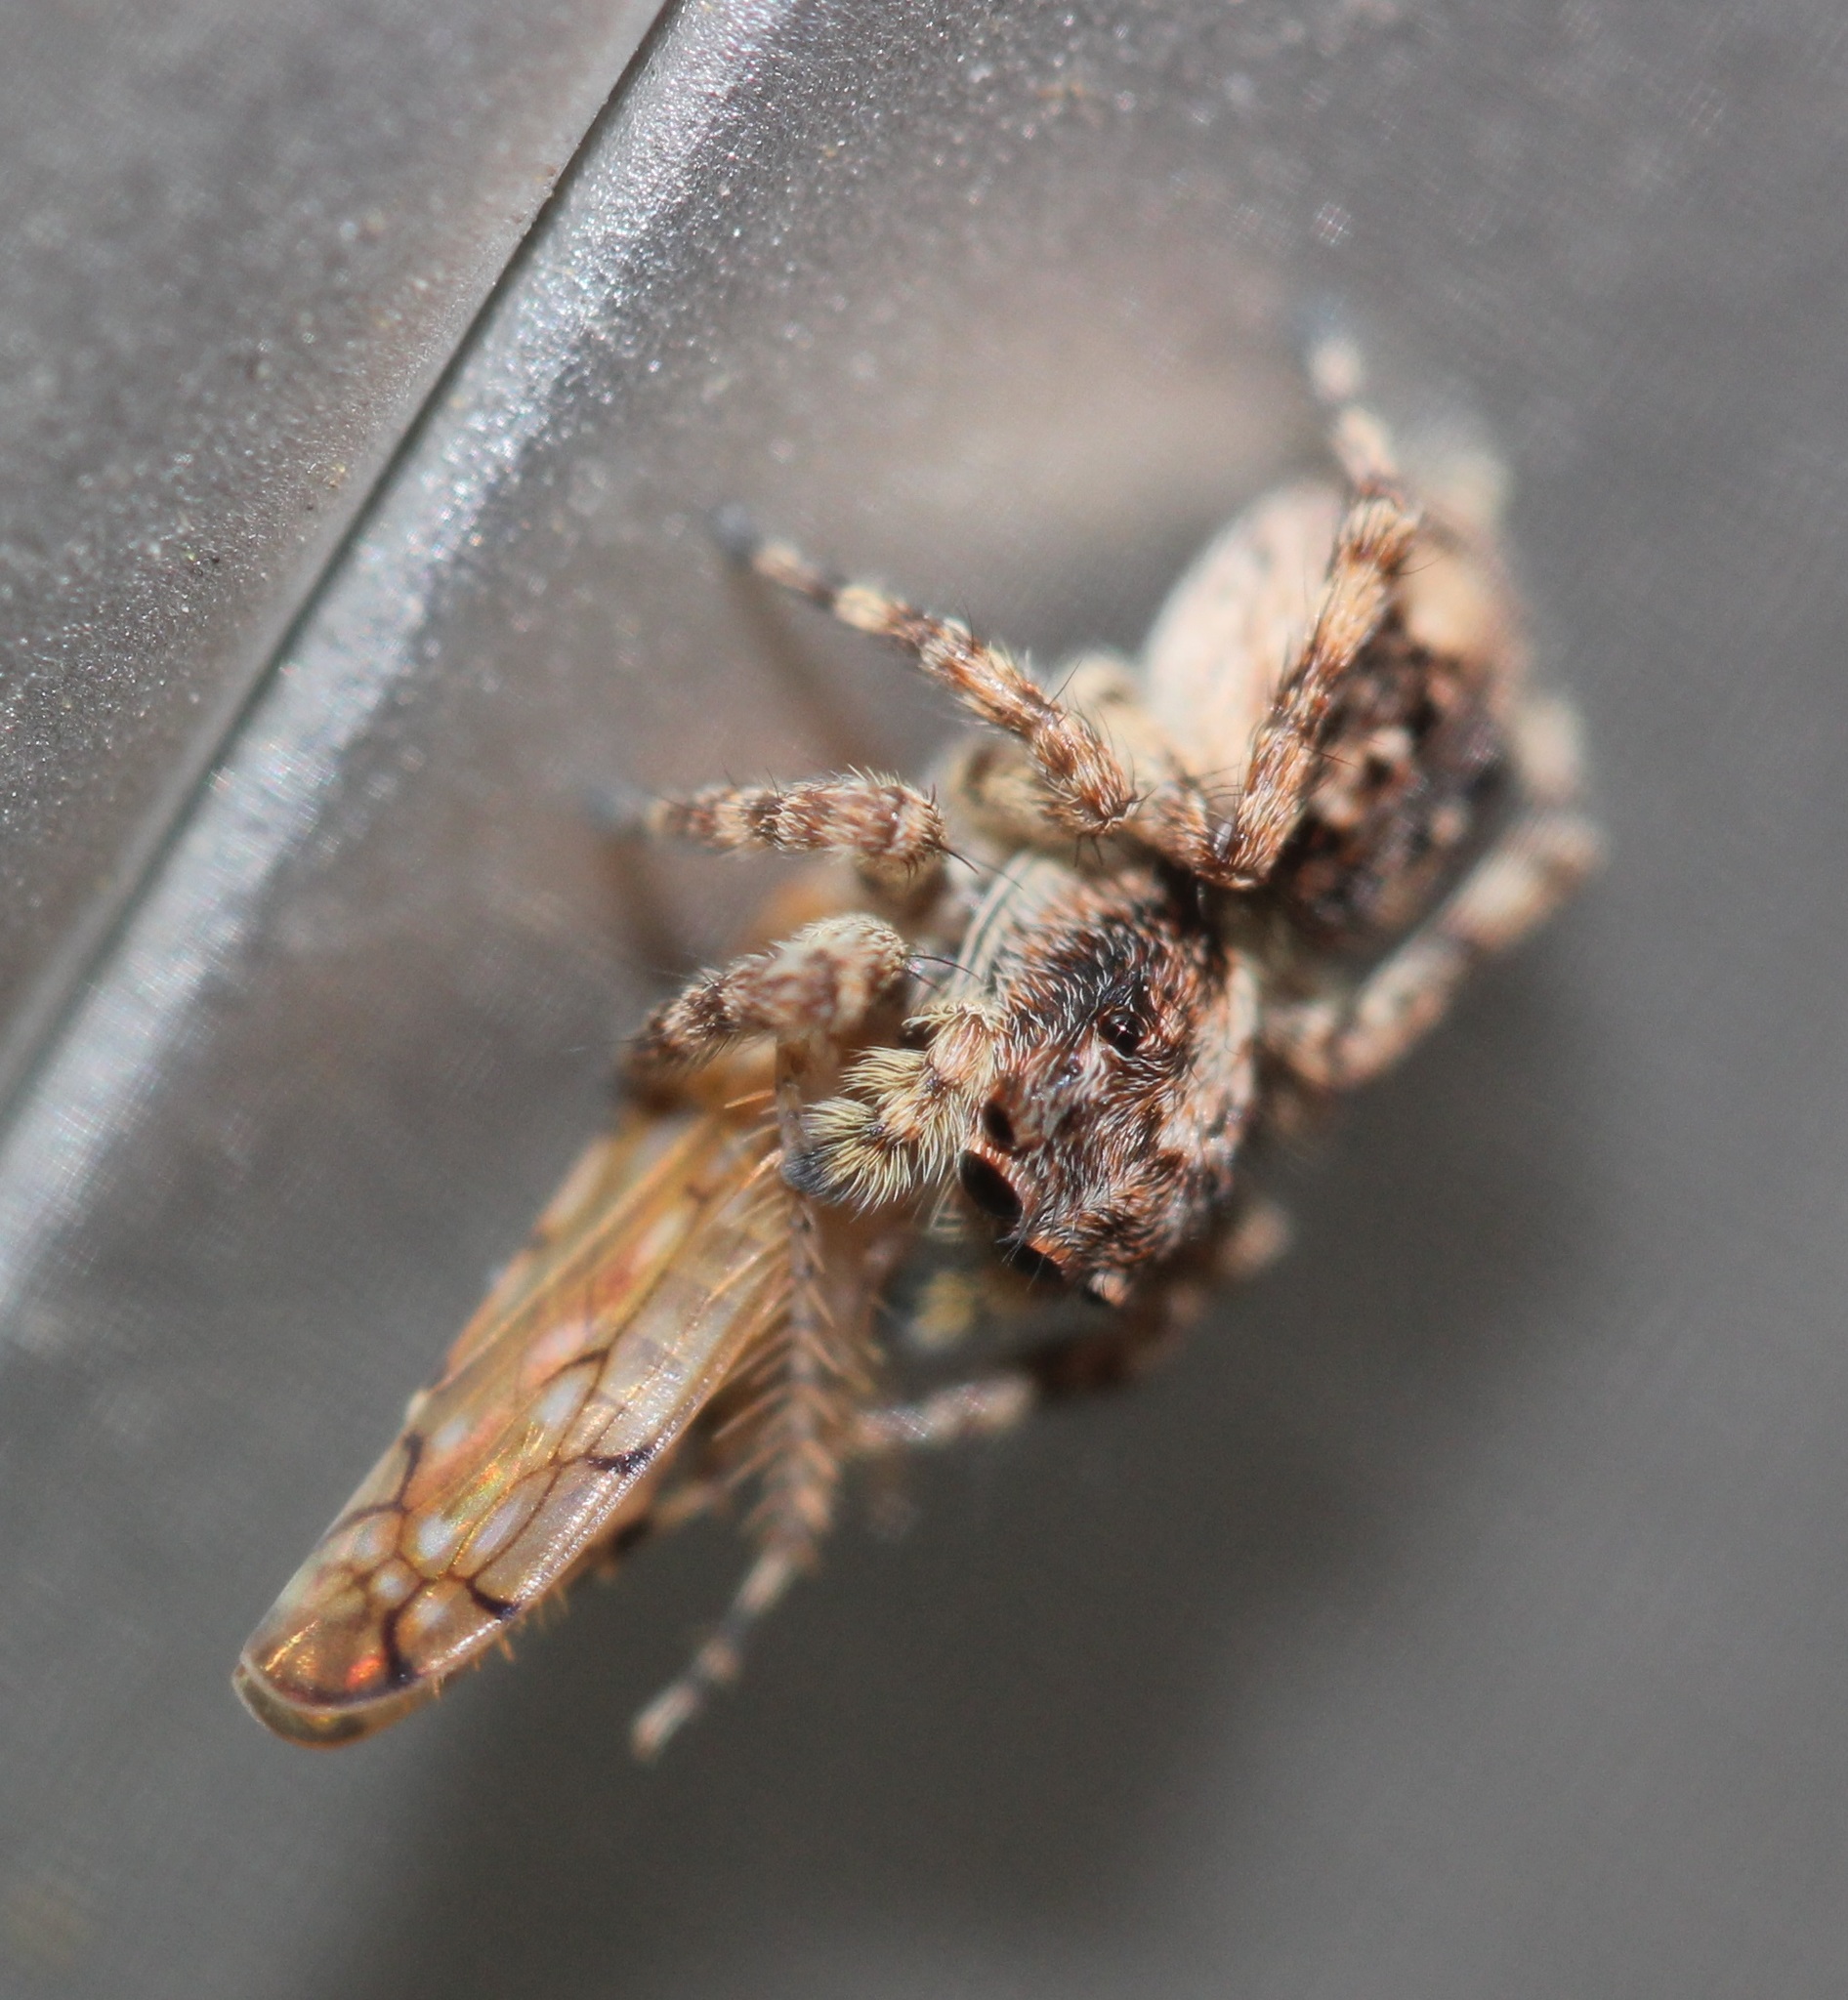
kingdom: Animalia
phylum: Arthropoda
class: Arachnida
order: Araneae
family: Salticidae
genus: Attulus
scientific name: Attulus fasciger
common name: Asiatic wall jumping spider
